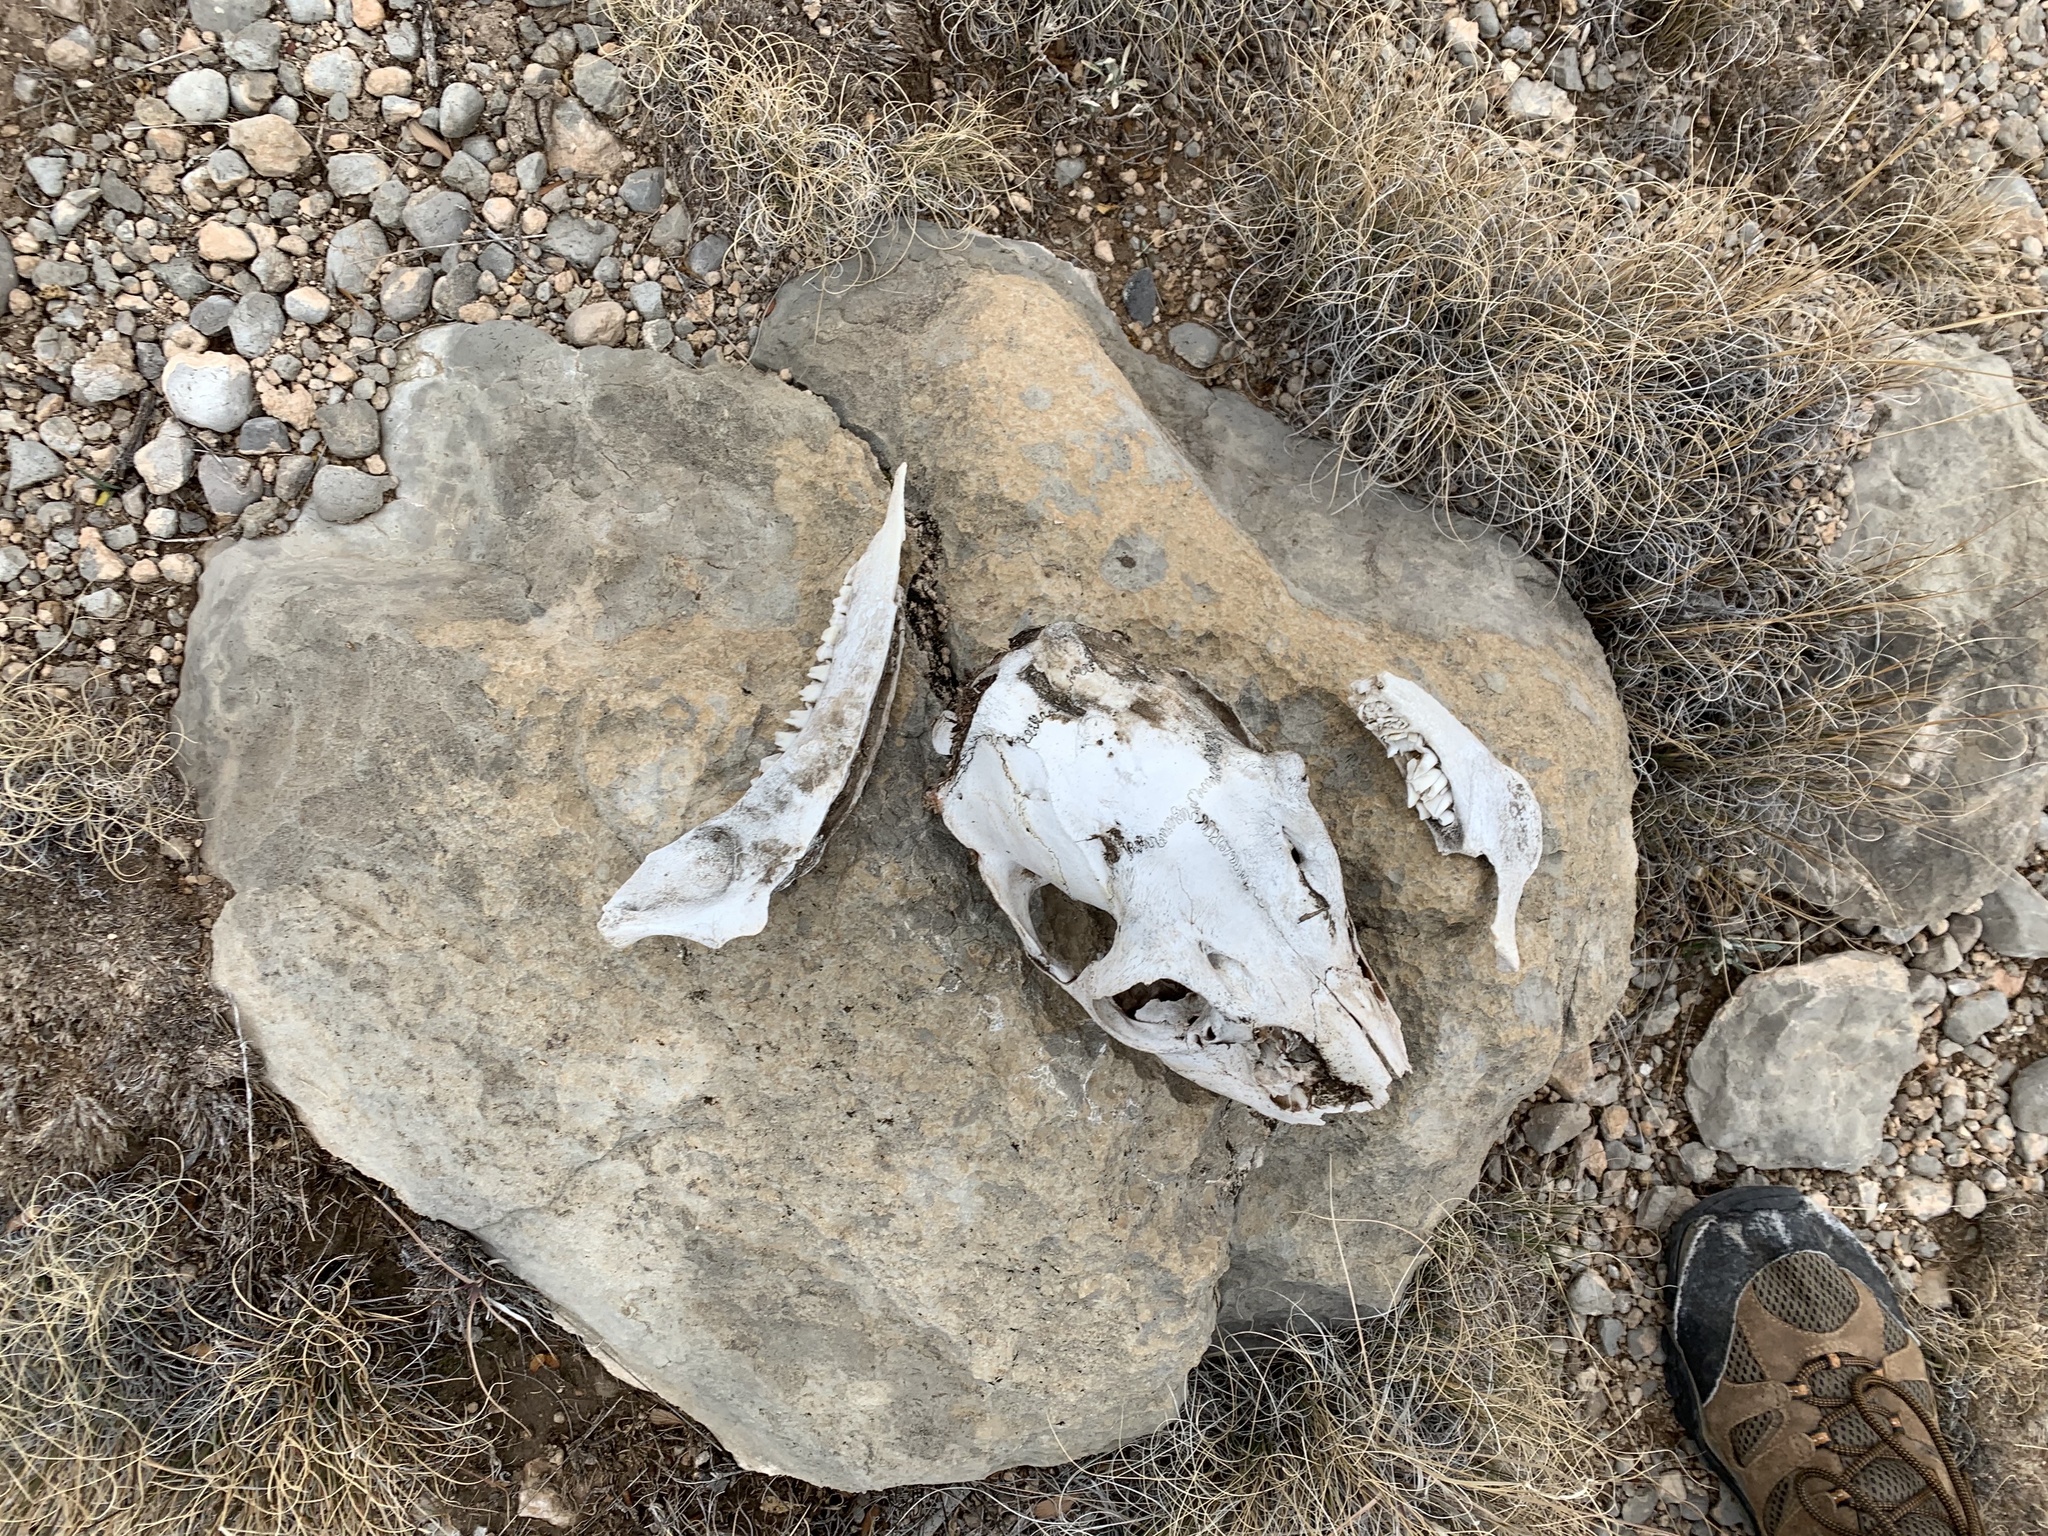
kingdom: Animalia
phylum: Chordata
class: Mammalia
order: Artiodactyla
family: Cervidae
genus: Odocoileus
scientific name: Odocoileus virginianus
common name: White-tailed deer
